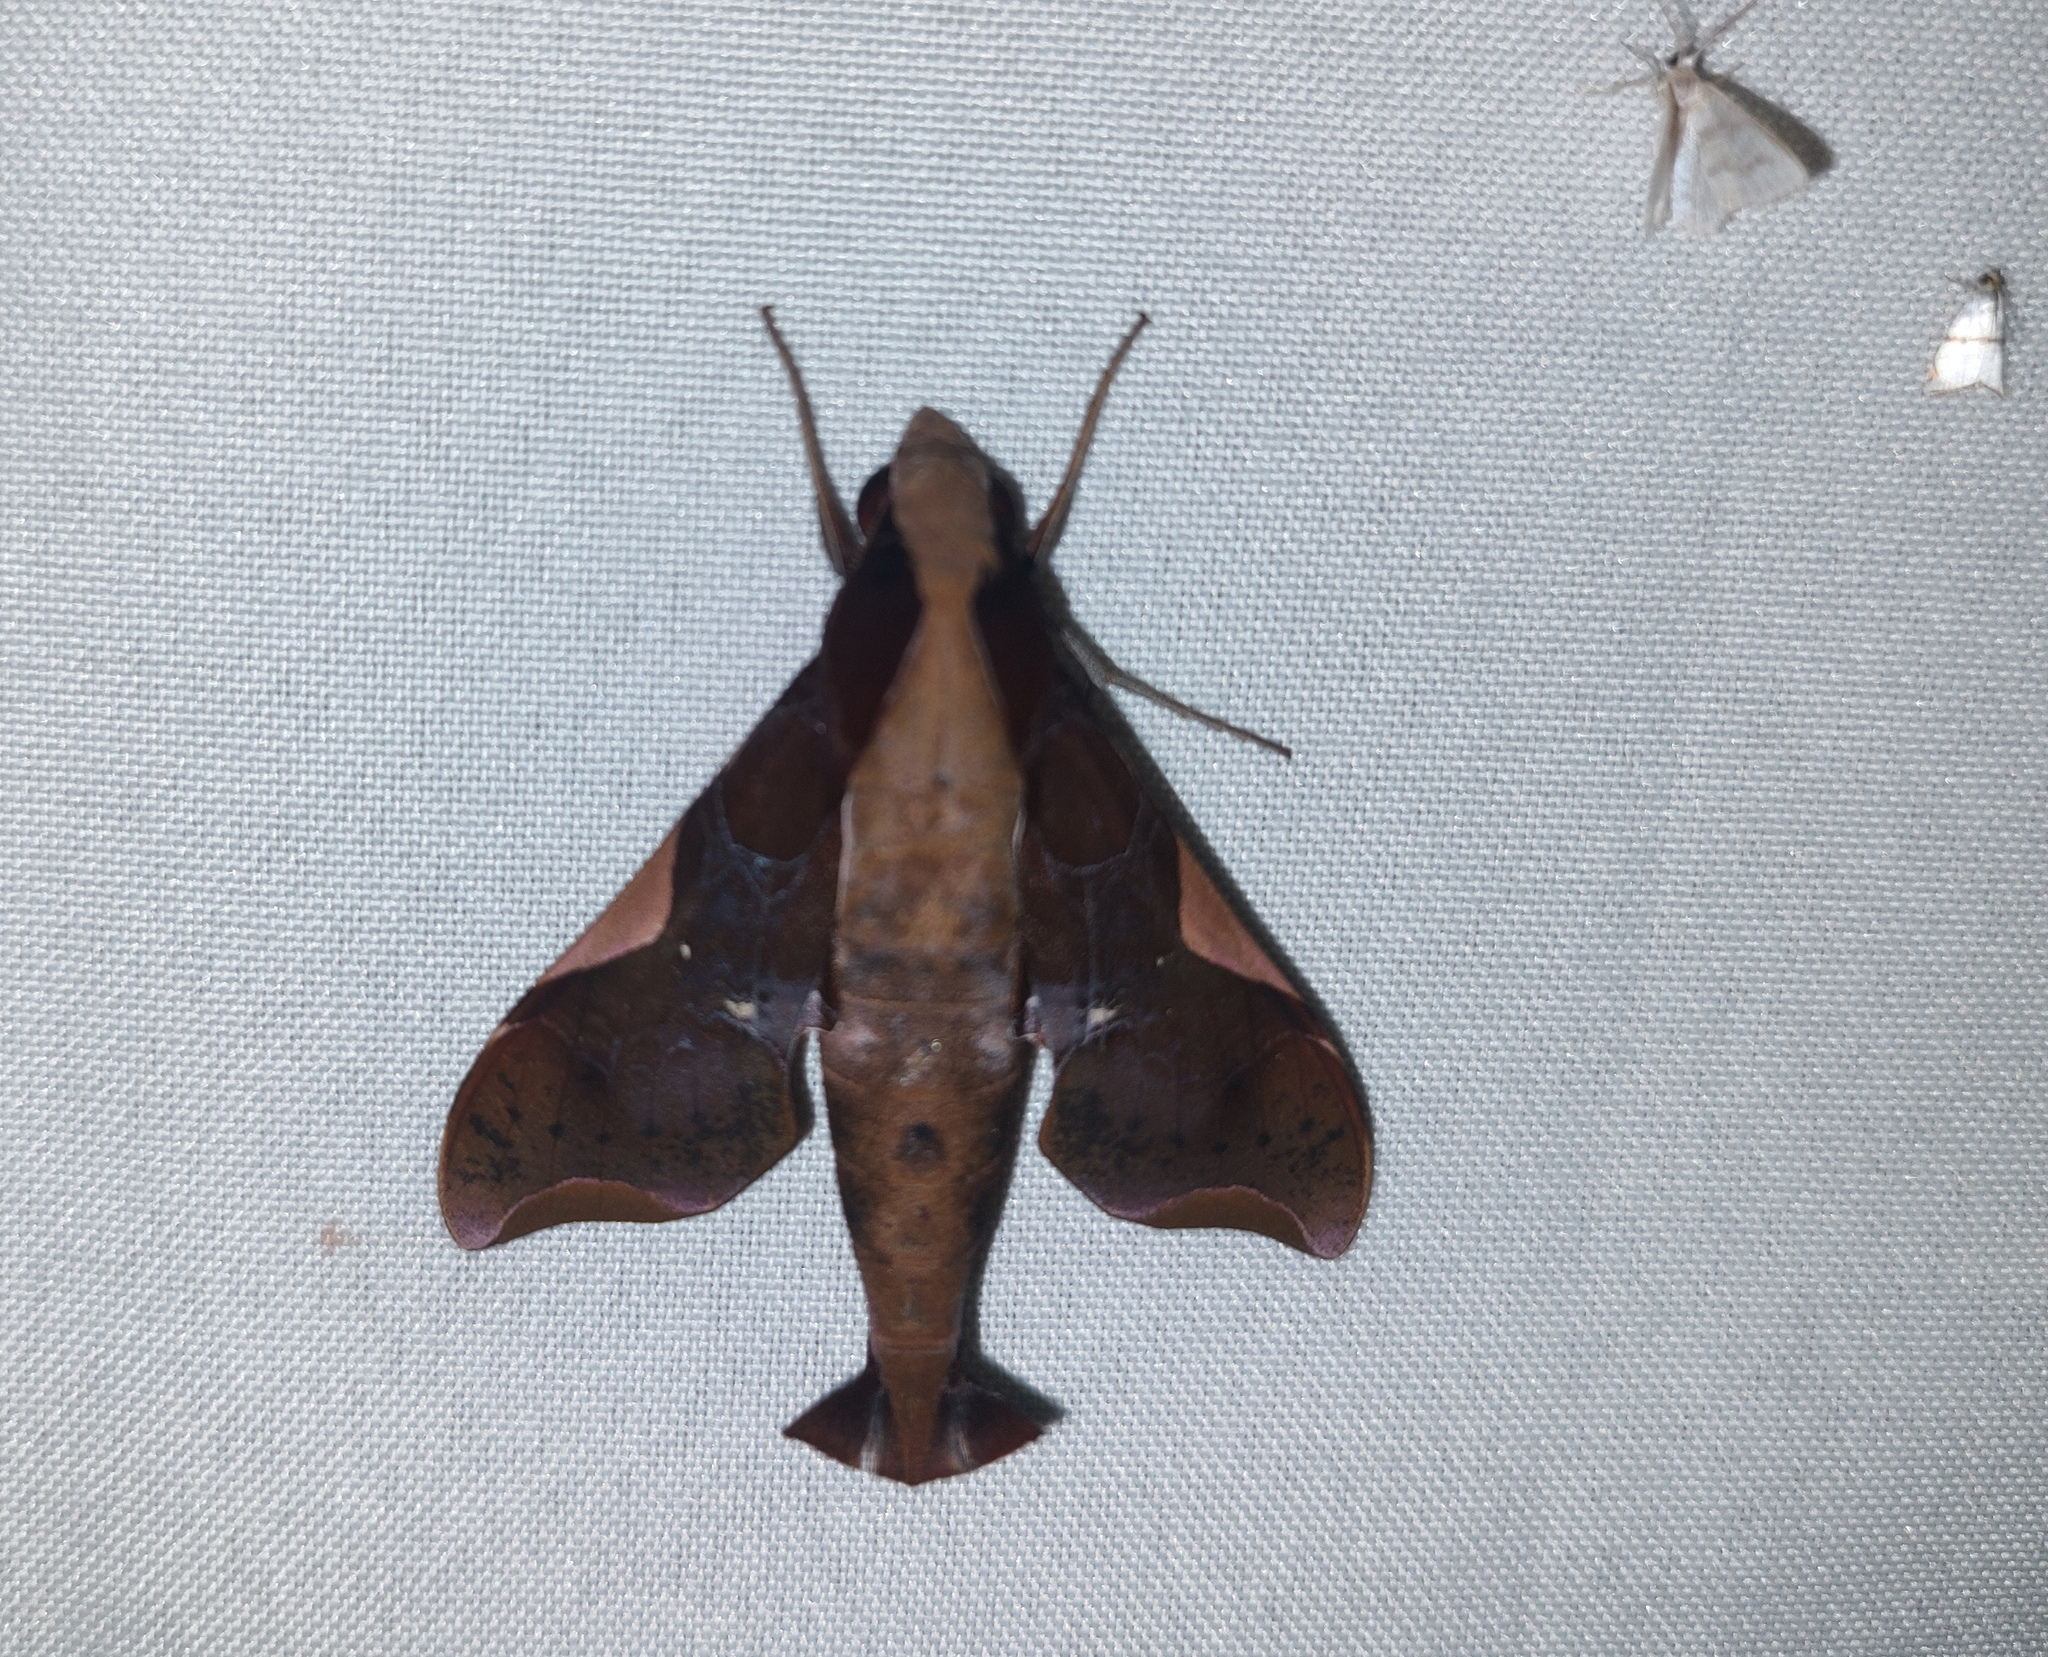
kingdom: Animalia
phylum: Arthropoda
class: Insecta
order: Lepidoptera
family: Sphingidae
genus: Callionima
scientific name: Callionima nomius
